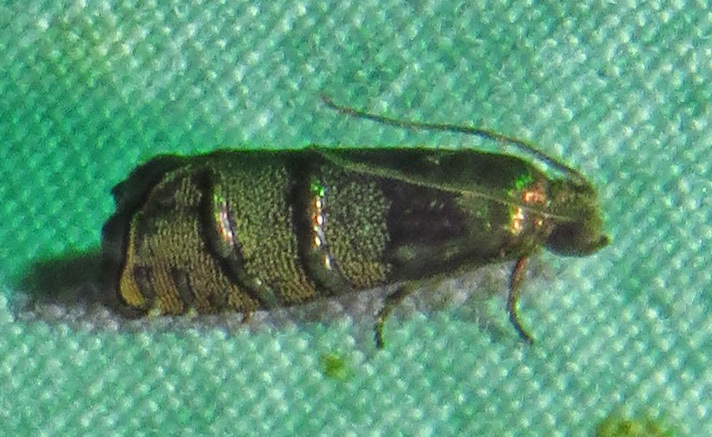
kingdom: Animalia
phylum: Arthropoda
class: Insecta
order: Lepidoptera
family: Tortricidae
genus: Cydia
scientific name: Cydia toreuta
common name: Eastern pine seedworm moth
